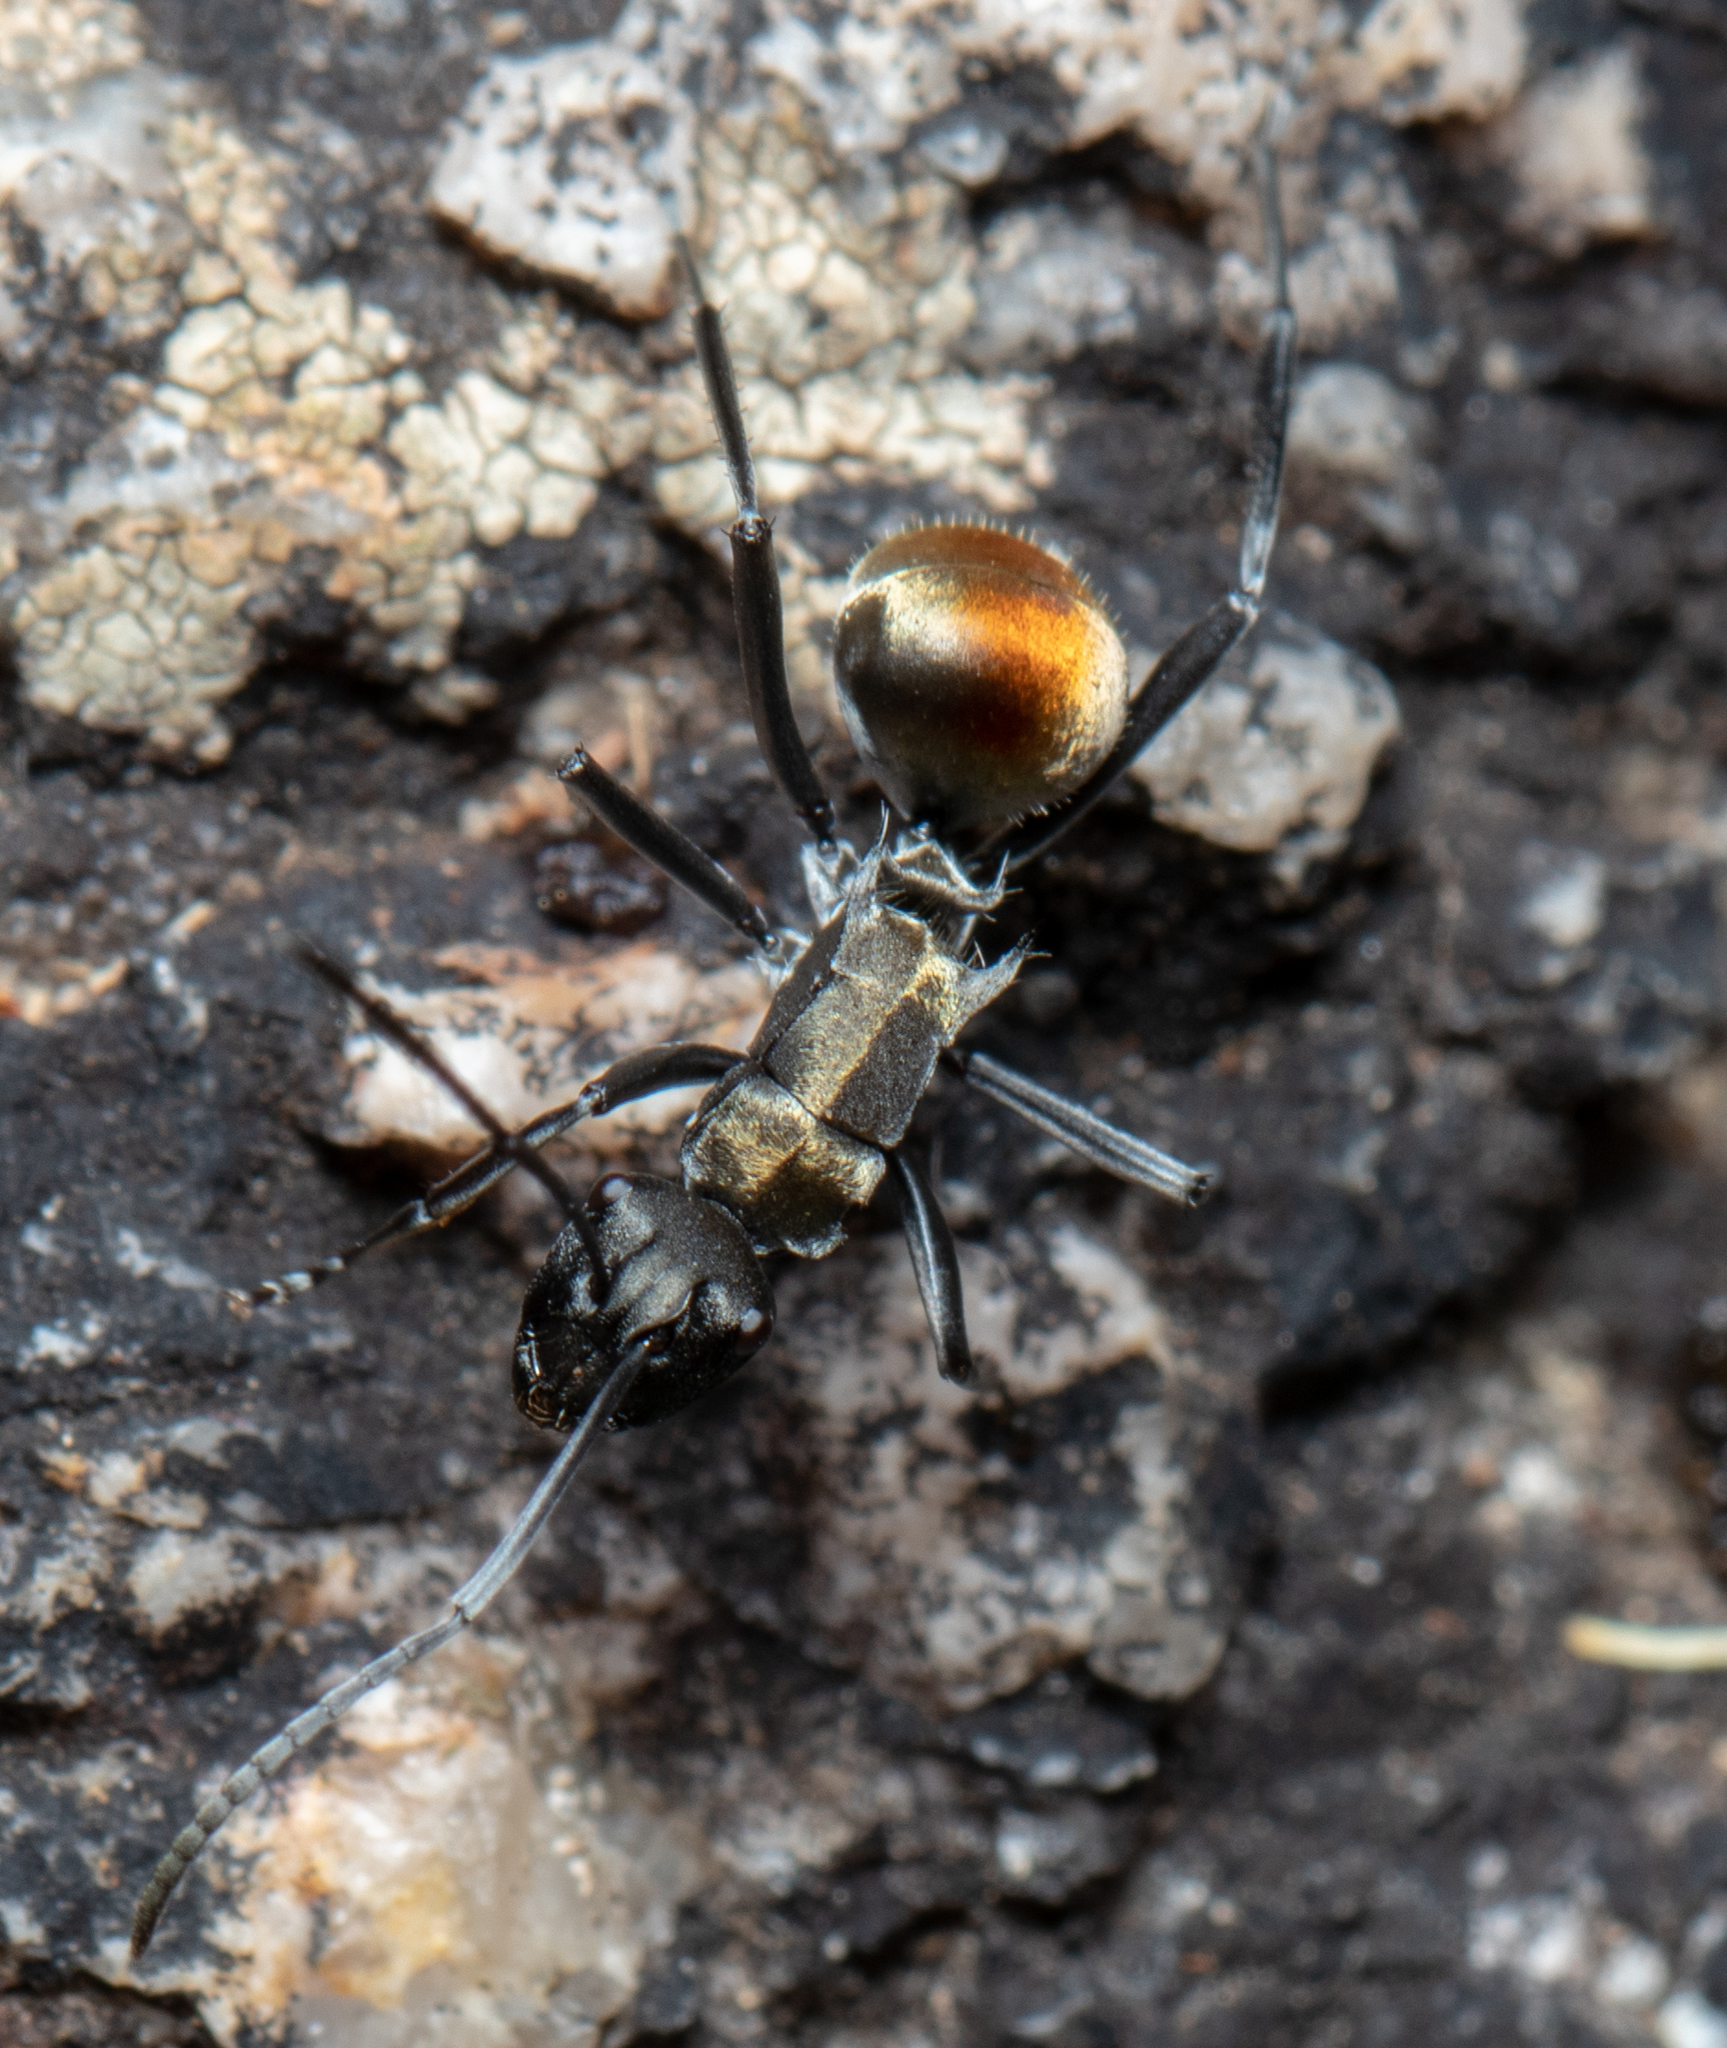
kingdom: Animalia
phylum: Arthropoda
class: Insecta
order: Hymenoptera
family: Formicidae
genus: Polyrhachis
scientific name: Polyrhachis ammon
